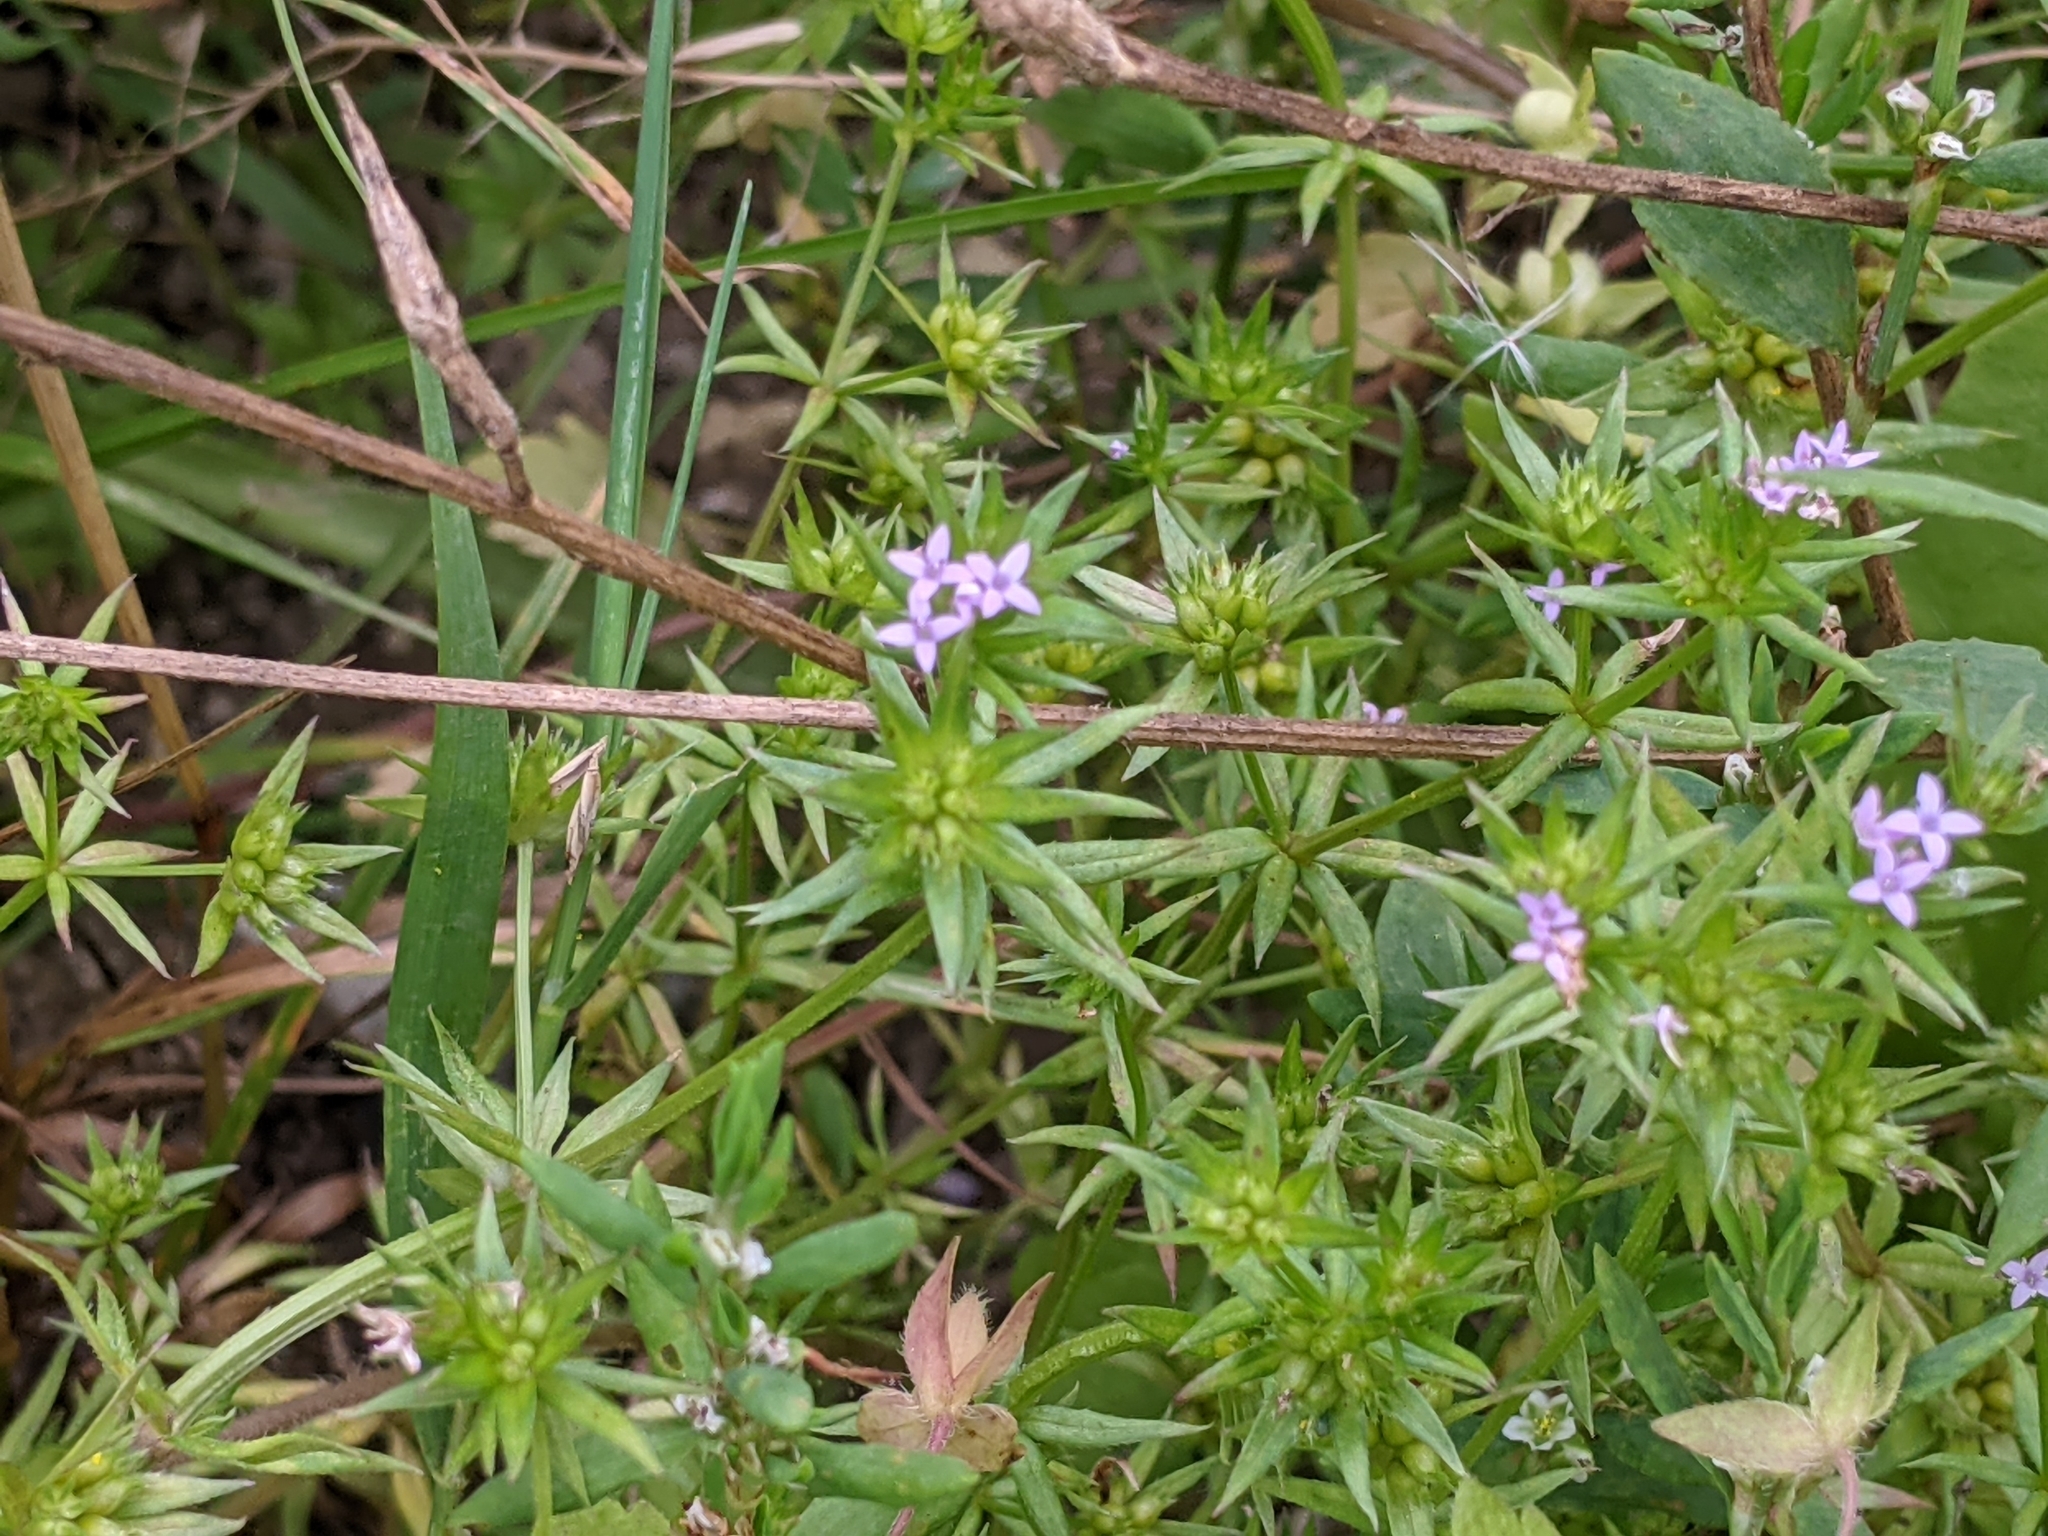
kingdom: Plantae
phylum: Tracheophyta
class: Magnoliopsida
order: Gentianales
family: Rubiaceae
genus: Sherardia
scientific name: Sherardia arvensis
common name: Field madder
